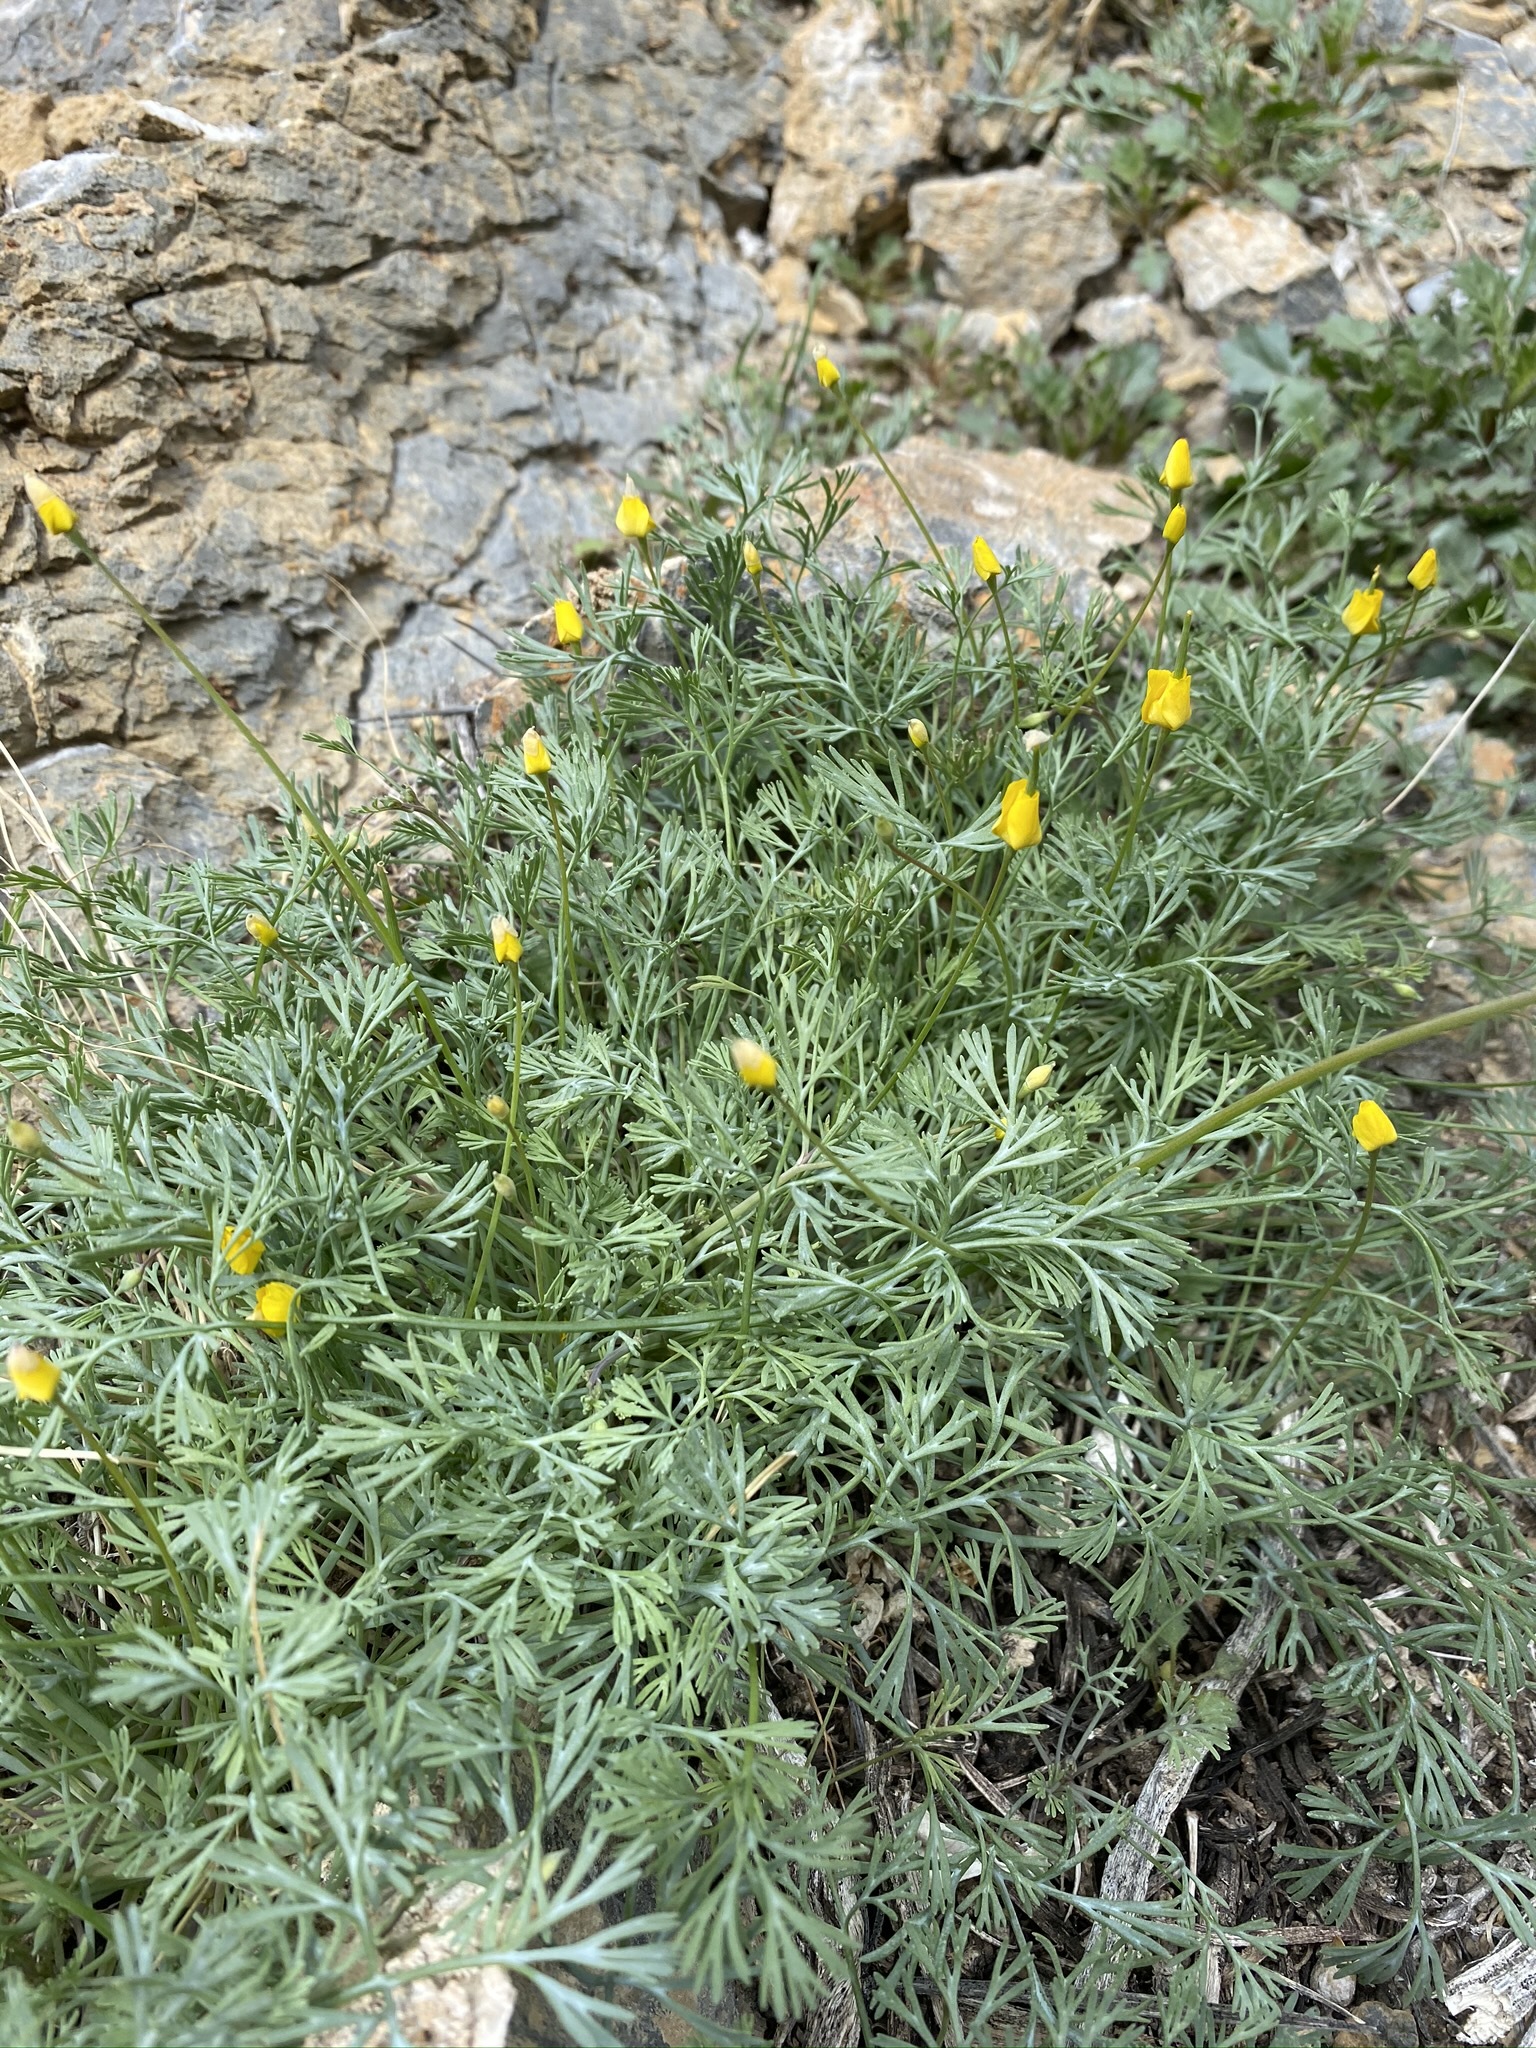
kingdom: Plantae
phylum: Tracheophyta
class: Magnoliopsida
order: Ranunculales
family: Papaveraceae
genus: Eschscholzia
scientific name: Eschscholzia minutiflora
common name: Small-flower california-poppy
